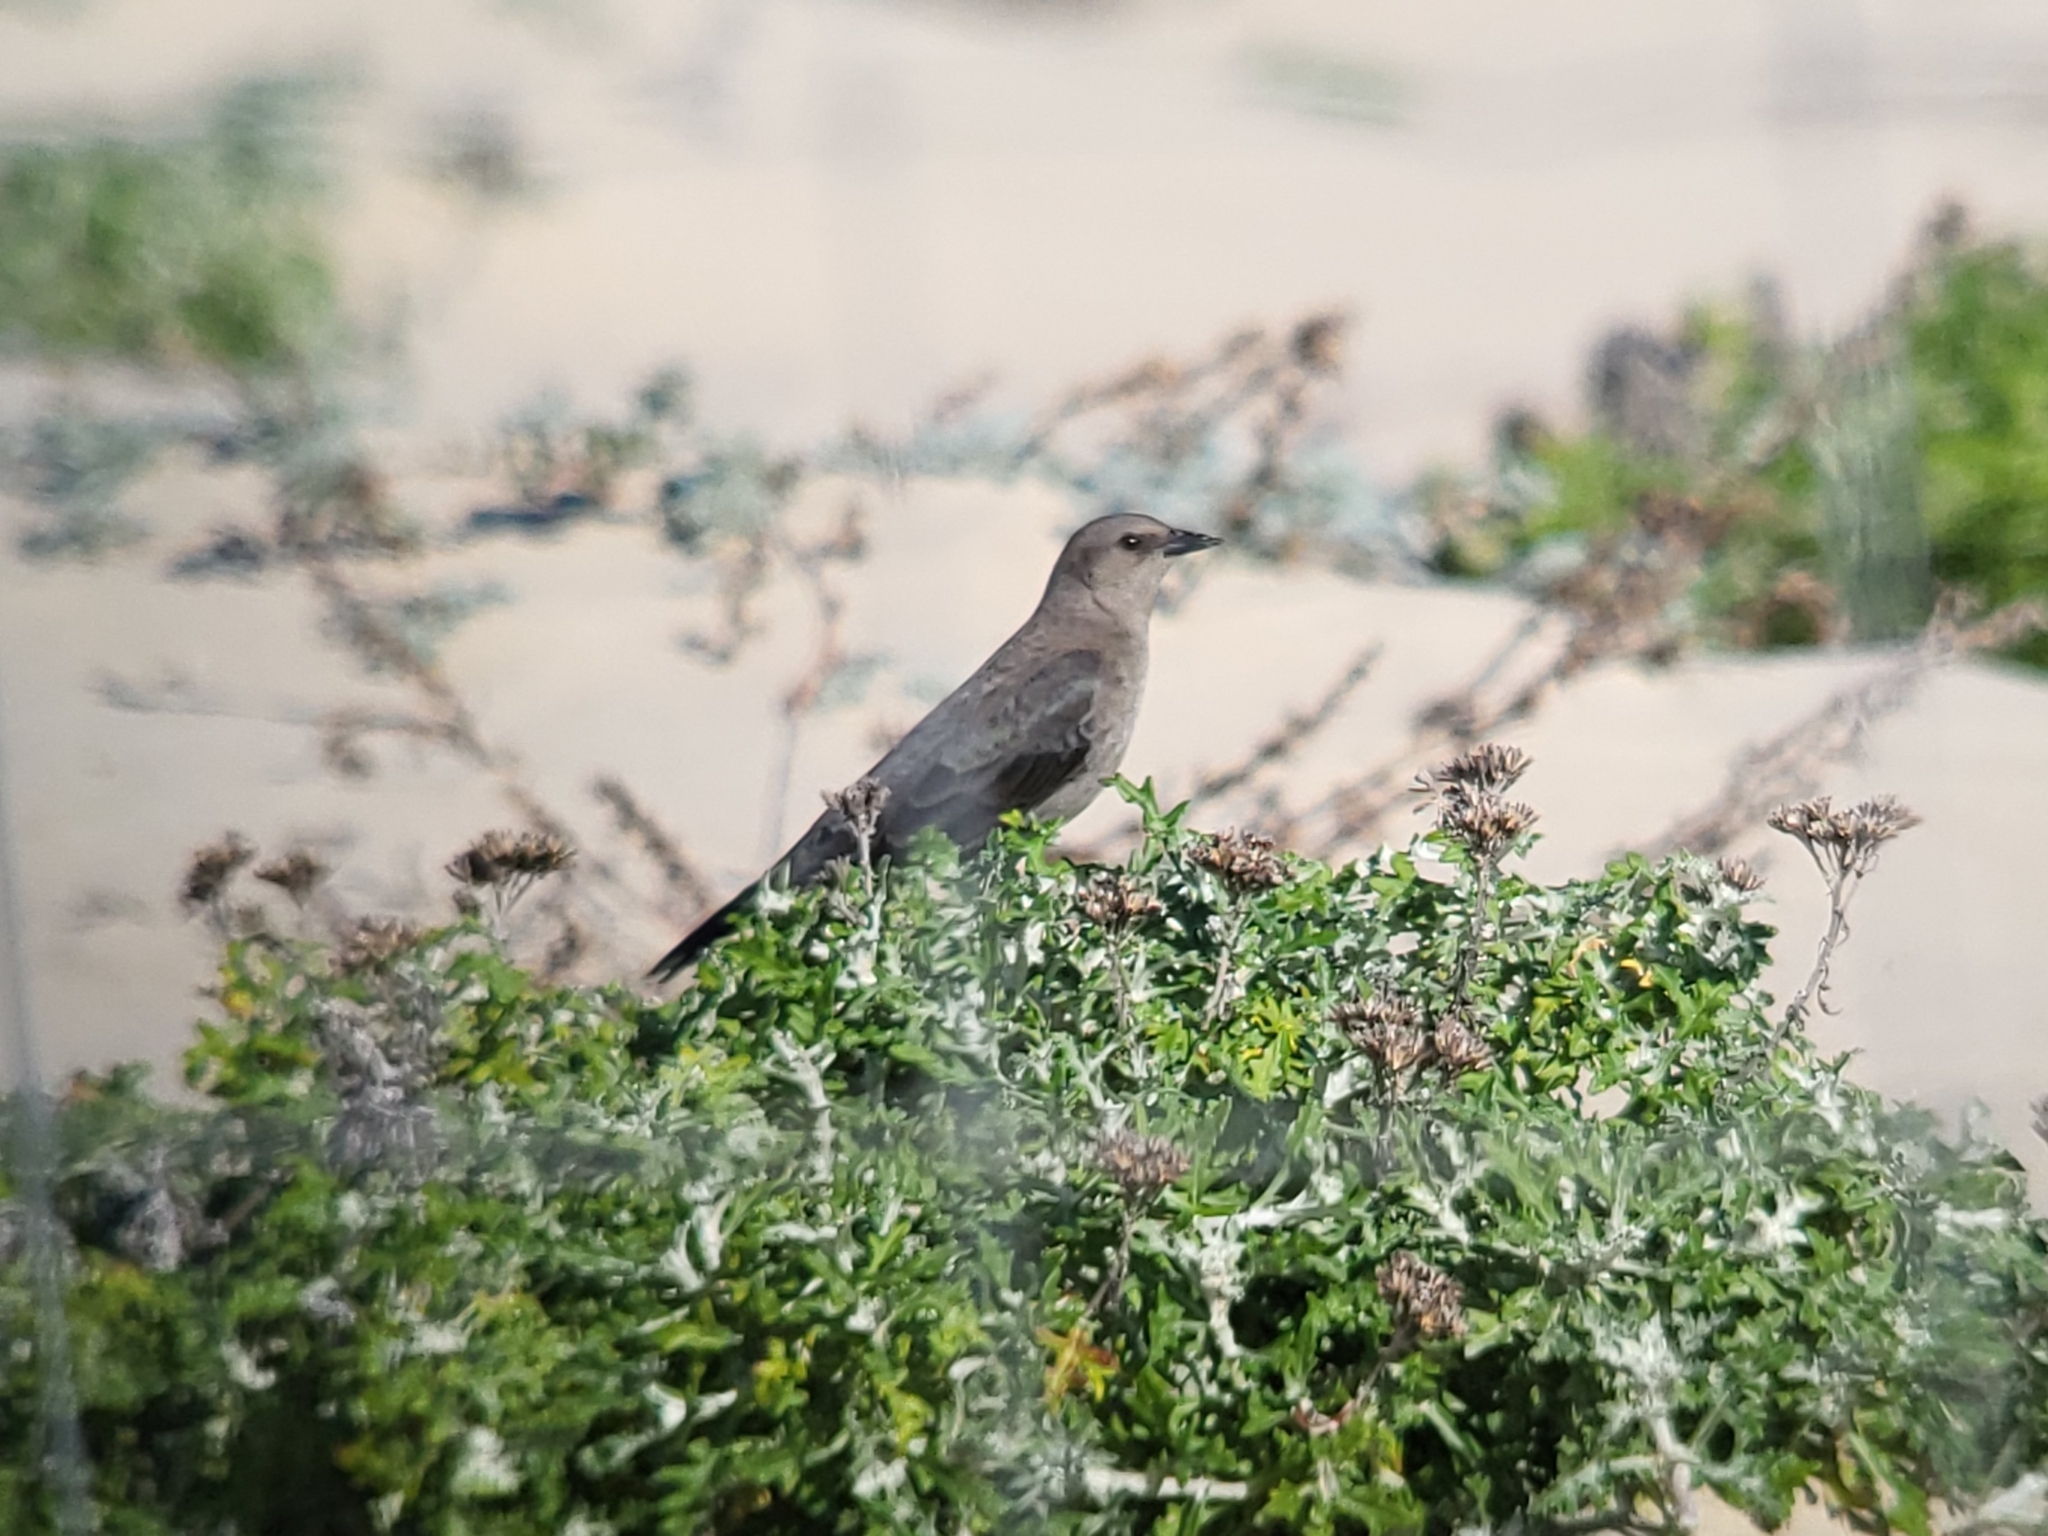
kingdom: Animalia
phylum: Chordata
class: Aves
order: Passeriformes
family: Icteridae
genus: Euphagus
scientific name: Euphagus cyanocephalus
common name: Brewer's blackbird
